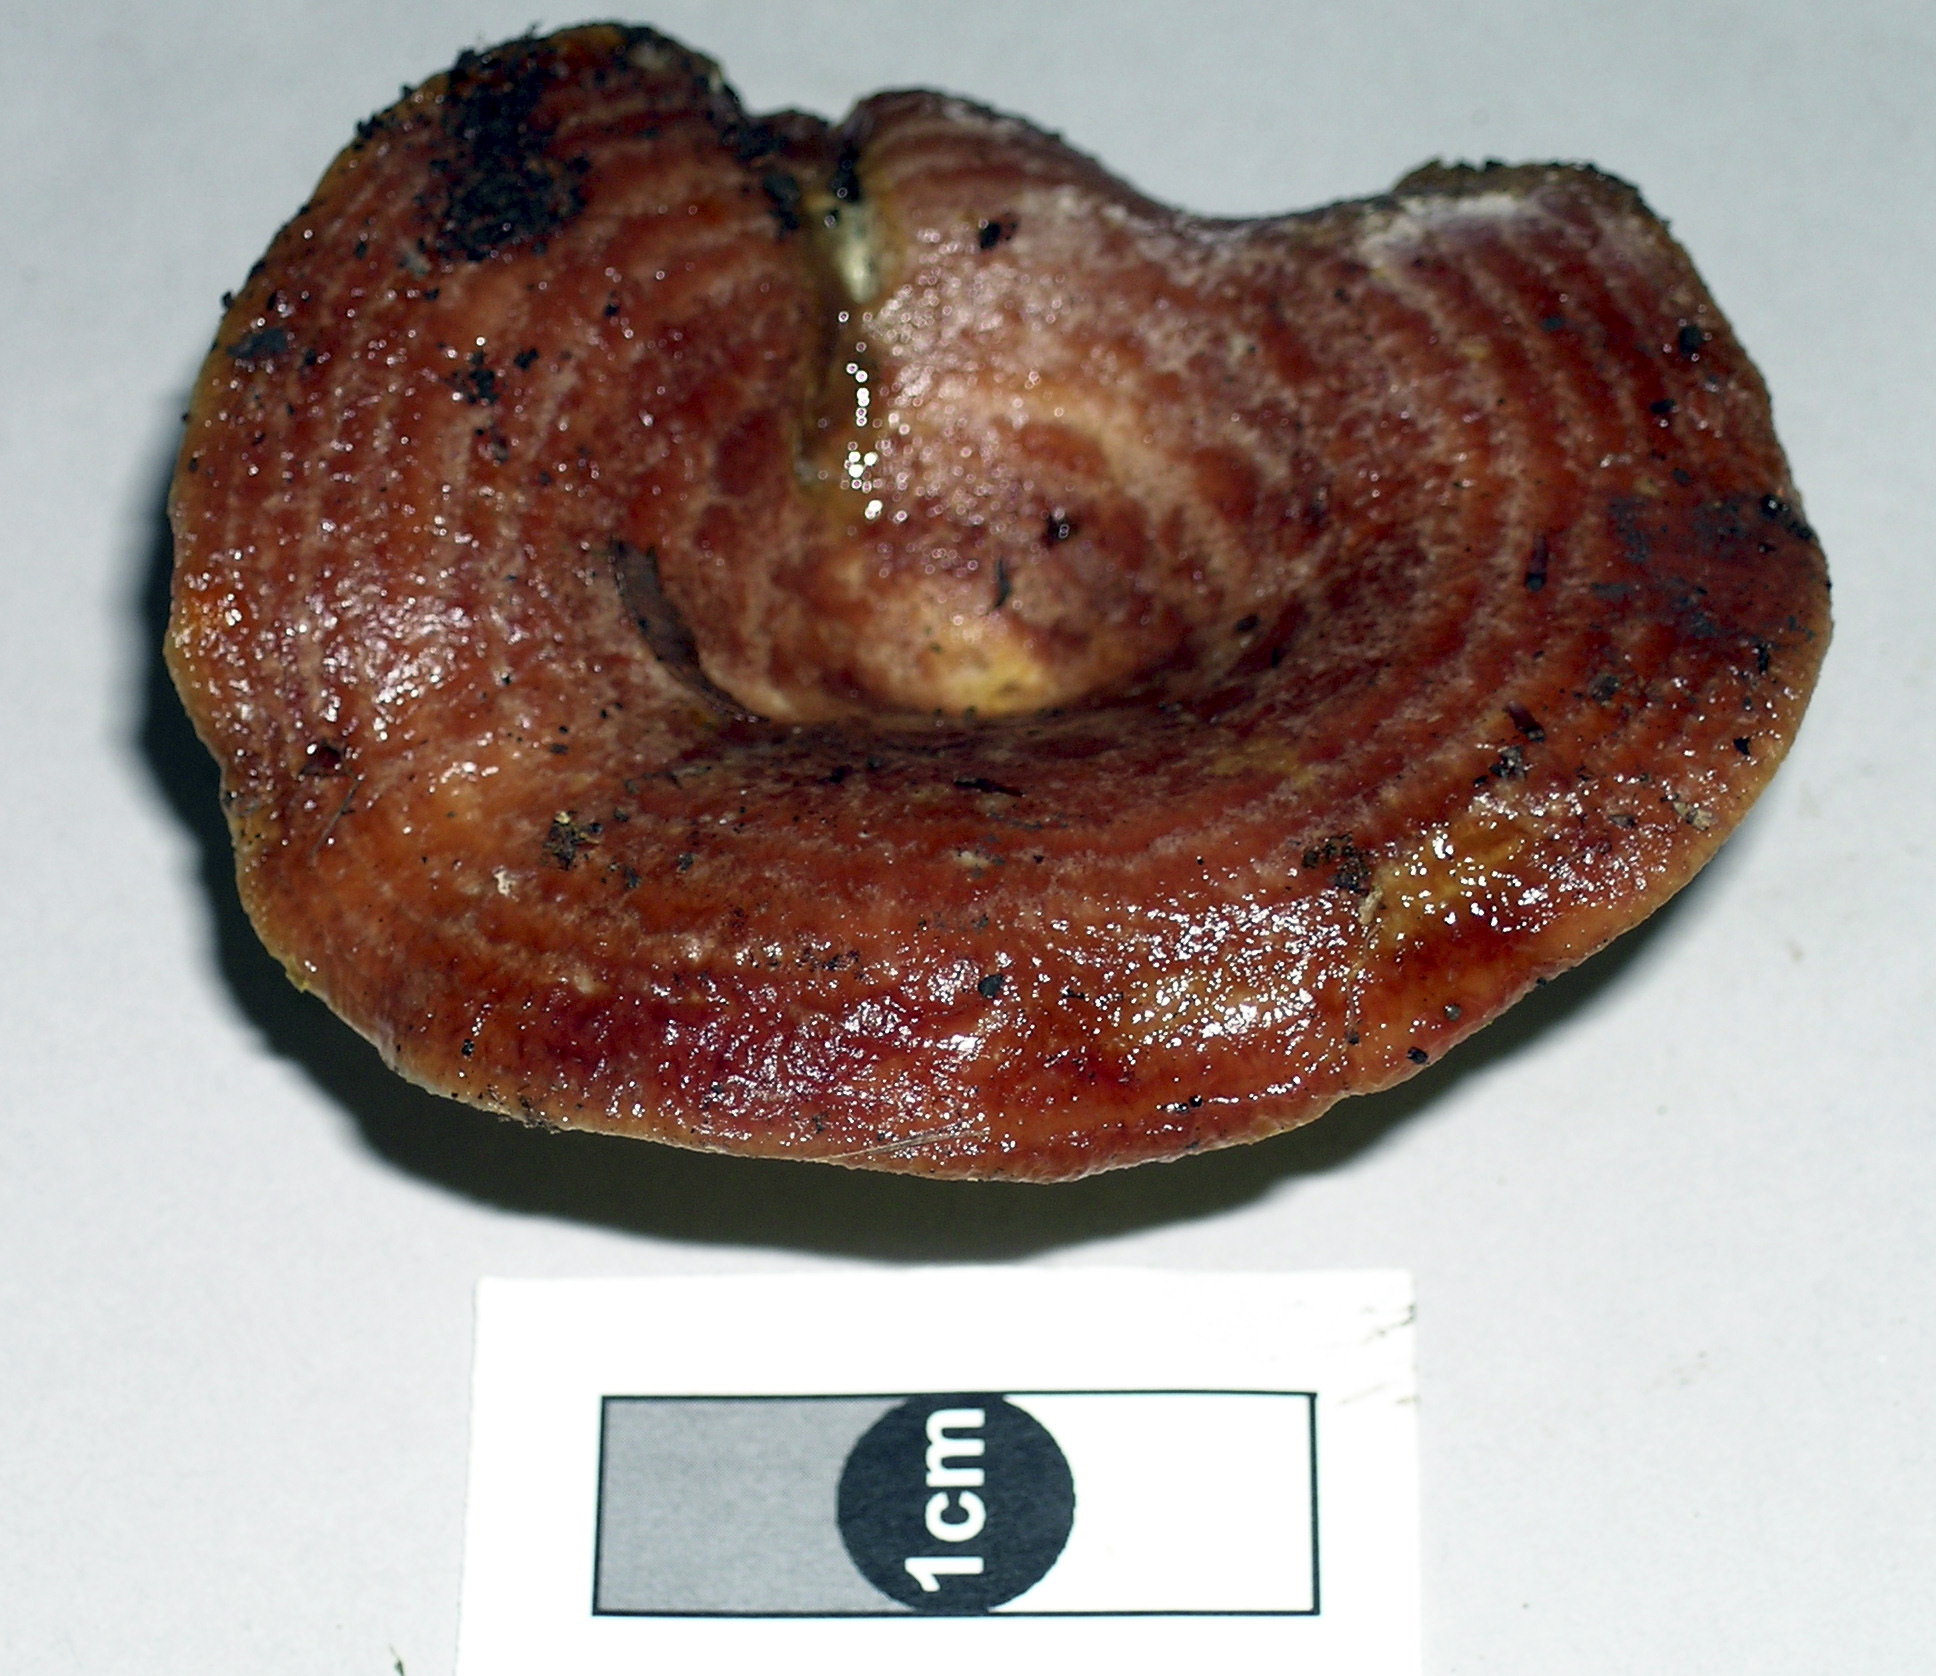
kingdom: Fungi
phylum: Basidiomycota
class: Agaricomycetes
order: Russulales
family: Russulaceae
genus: Lactarius
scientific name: Lactarius tawai
